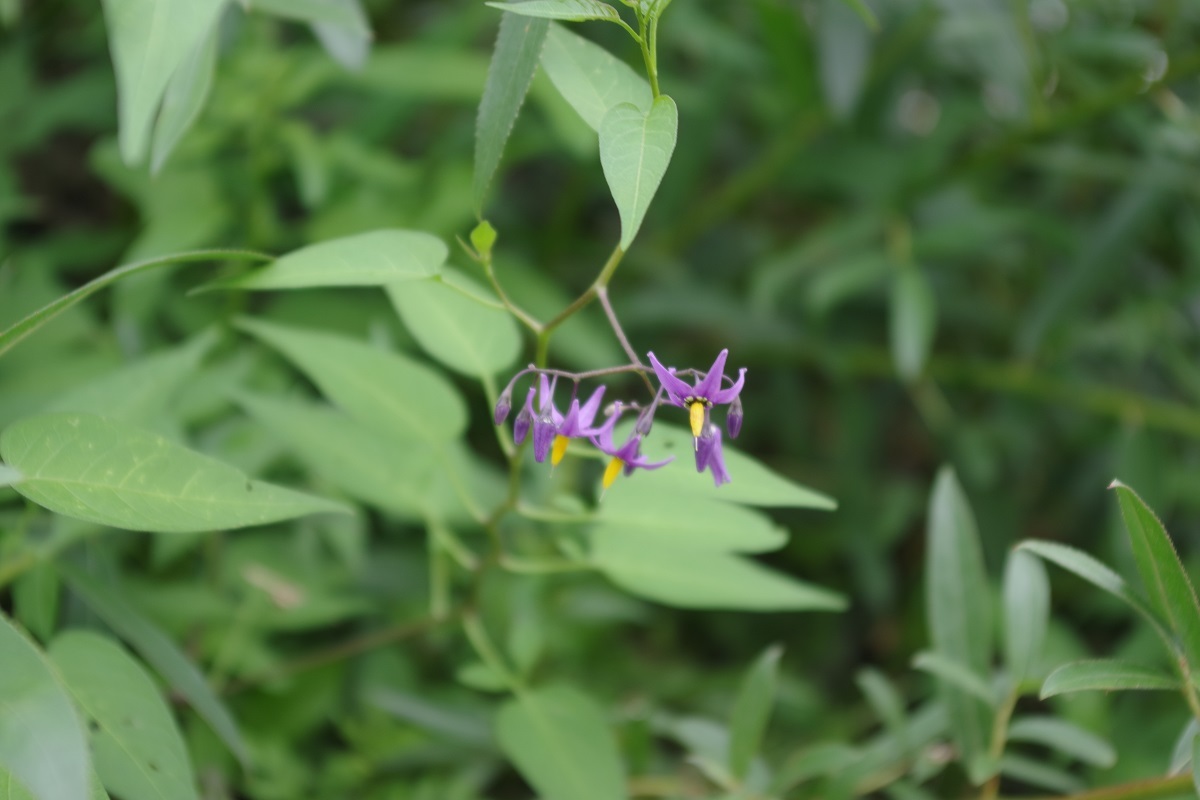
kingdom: Plantae
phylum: Tracheophyta
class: Magnoliopsida
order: Solanales
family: Solanaceae
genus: Solanum
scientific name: Solanum dulcamara
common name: Climbing nightshade
